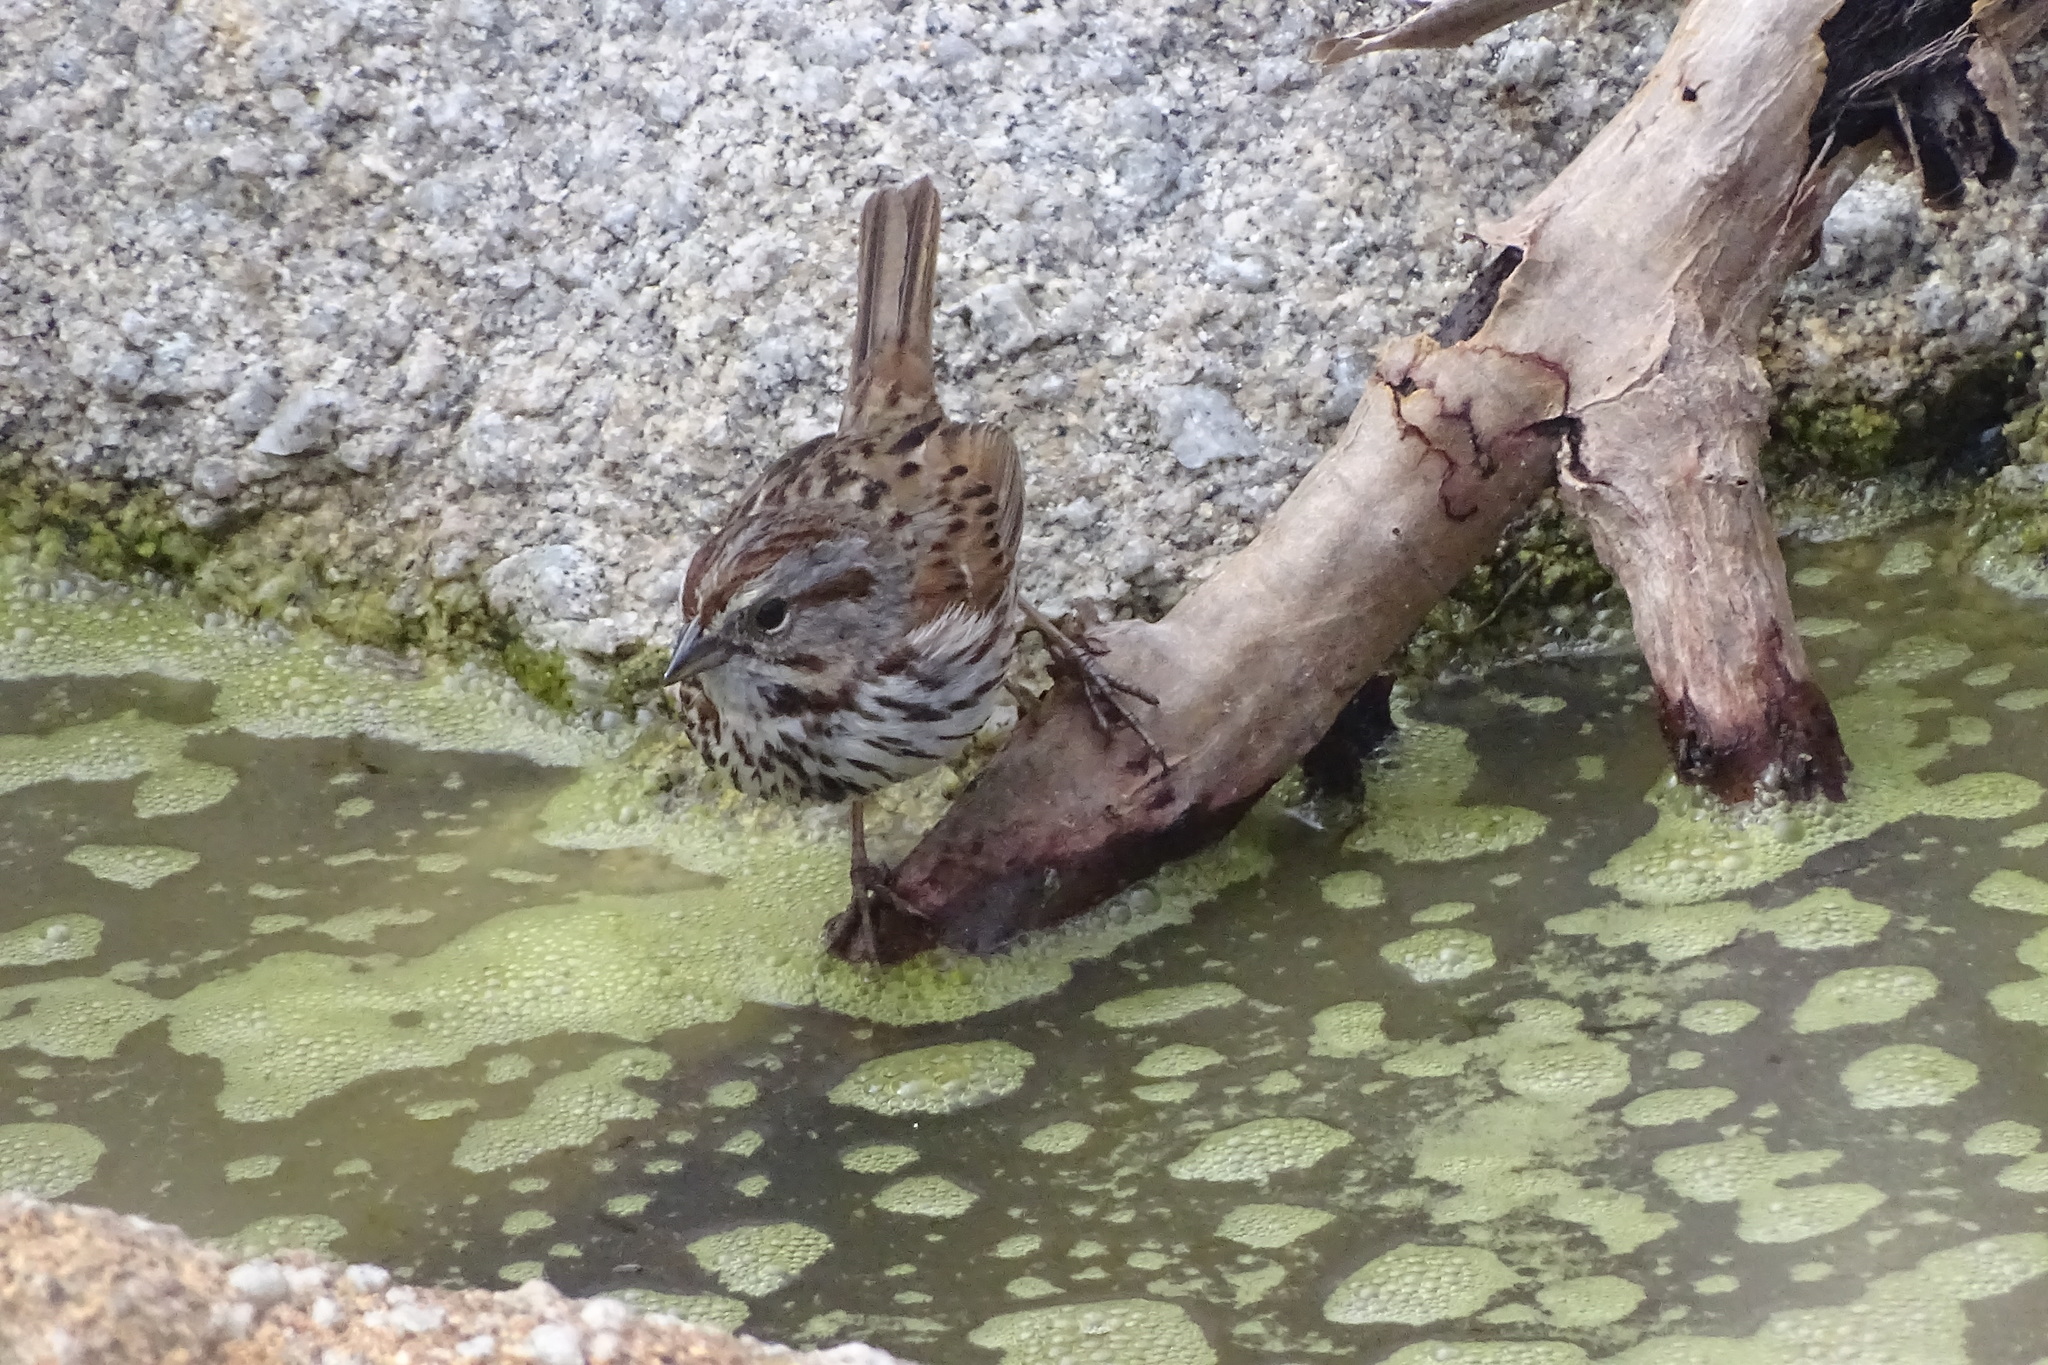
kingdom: Animalia
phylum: Chordata
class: Aves
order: Passeriformes
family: Passerellidae
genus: Melospiza
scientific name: Melospiza melodia
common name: Song sparrow
